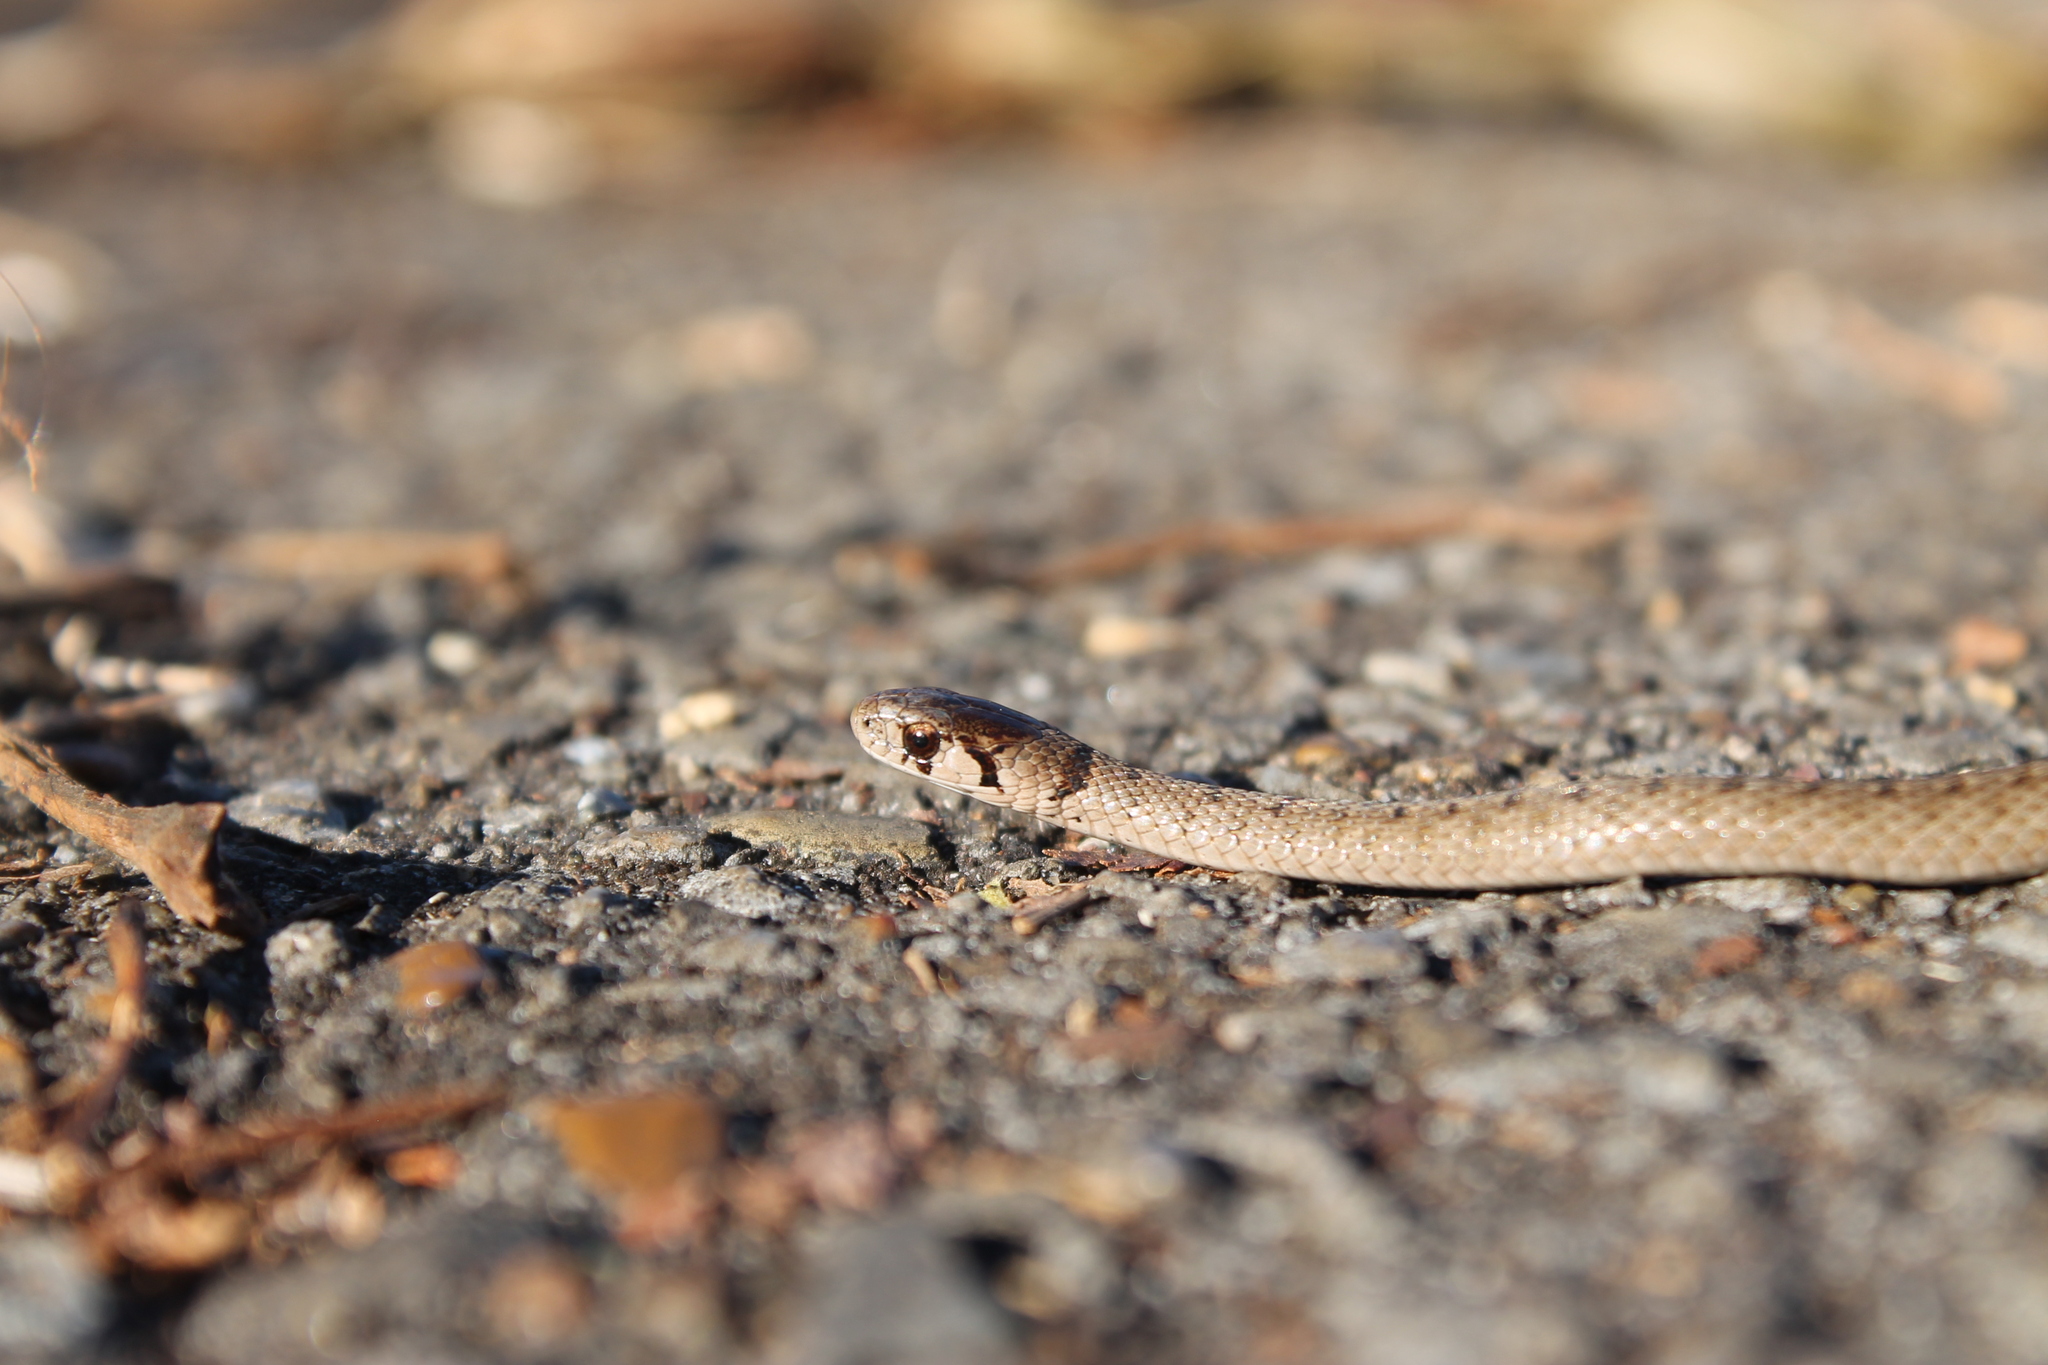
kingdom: Animalia
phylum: Chordata
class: Squamata
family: Colubridae
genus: Storeria
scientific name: Storeria dekayi
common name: (dekay’s) brown snake
